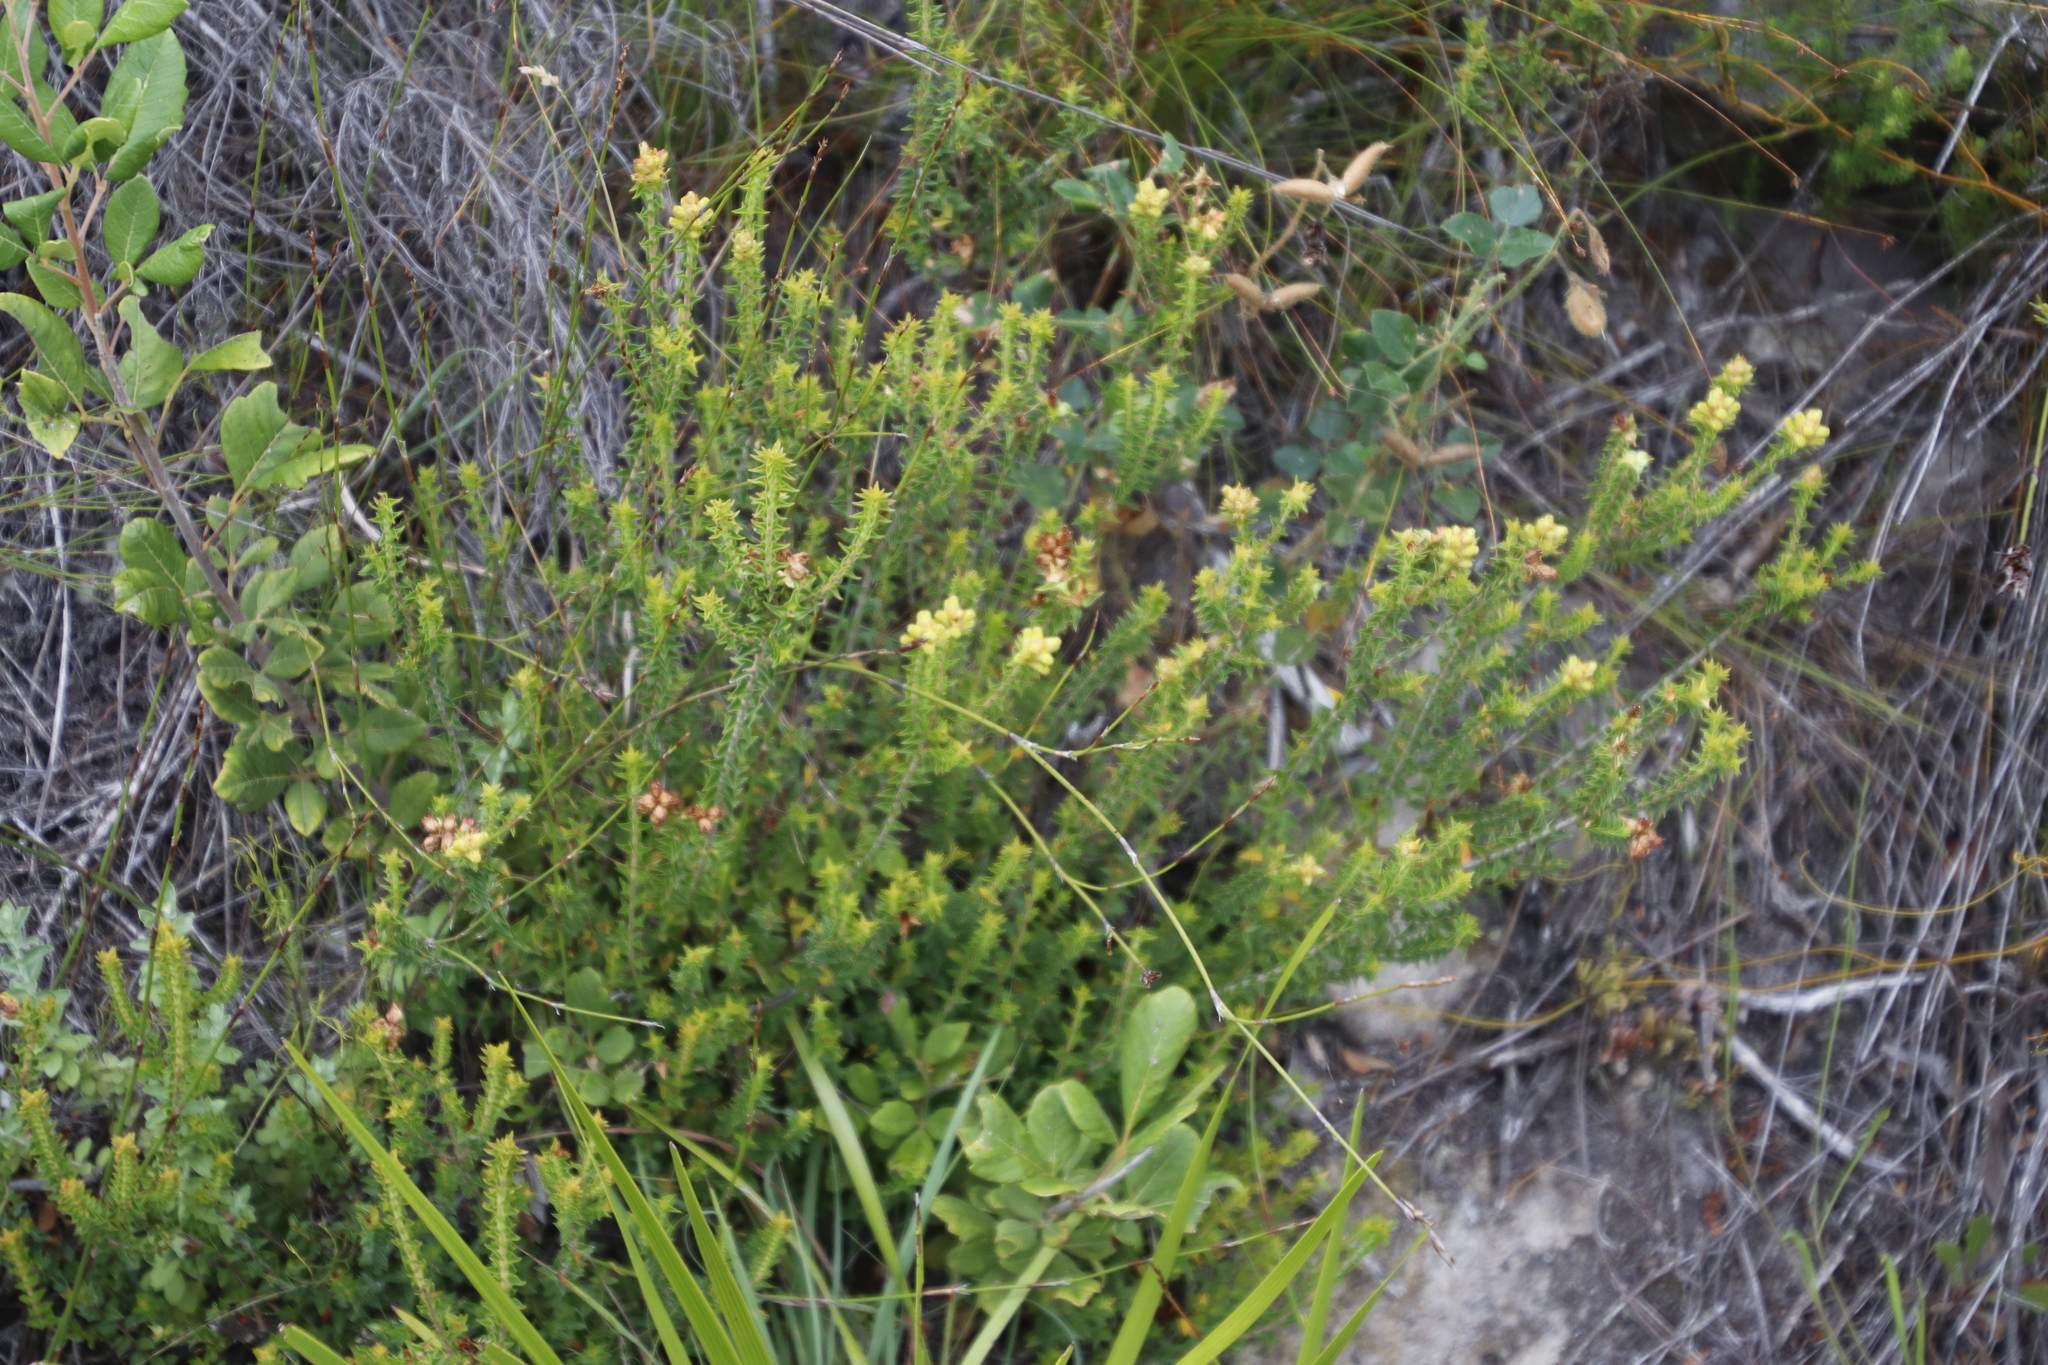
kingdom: Plantae
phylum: Tracheophyta
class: Magnoliopsida
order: Myrtales
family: Penaeaceae
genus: Penaea
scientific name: Penaea mucronata
